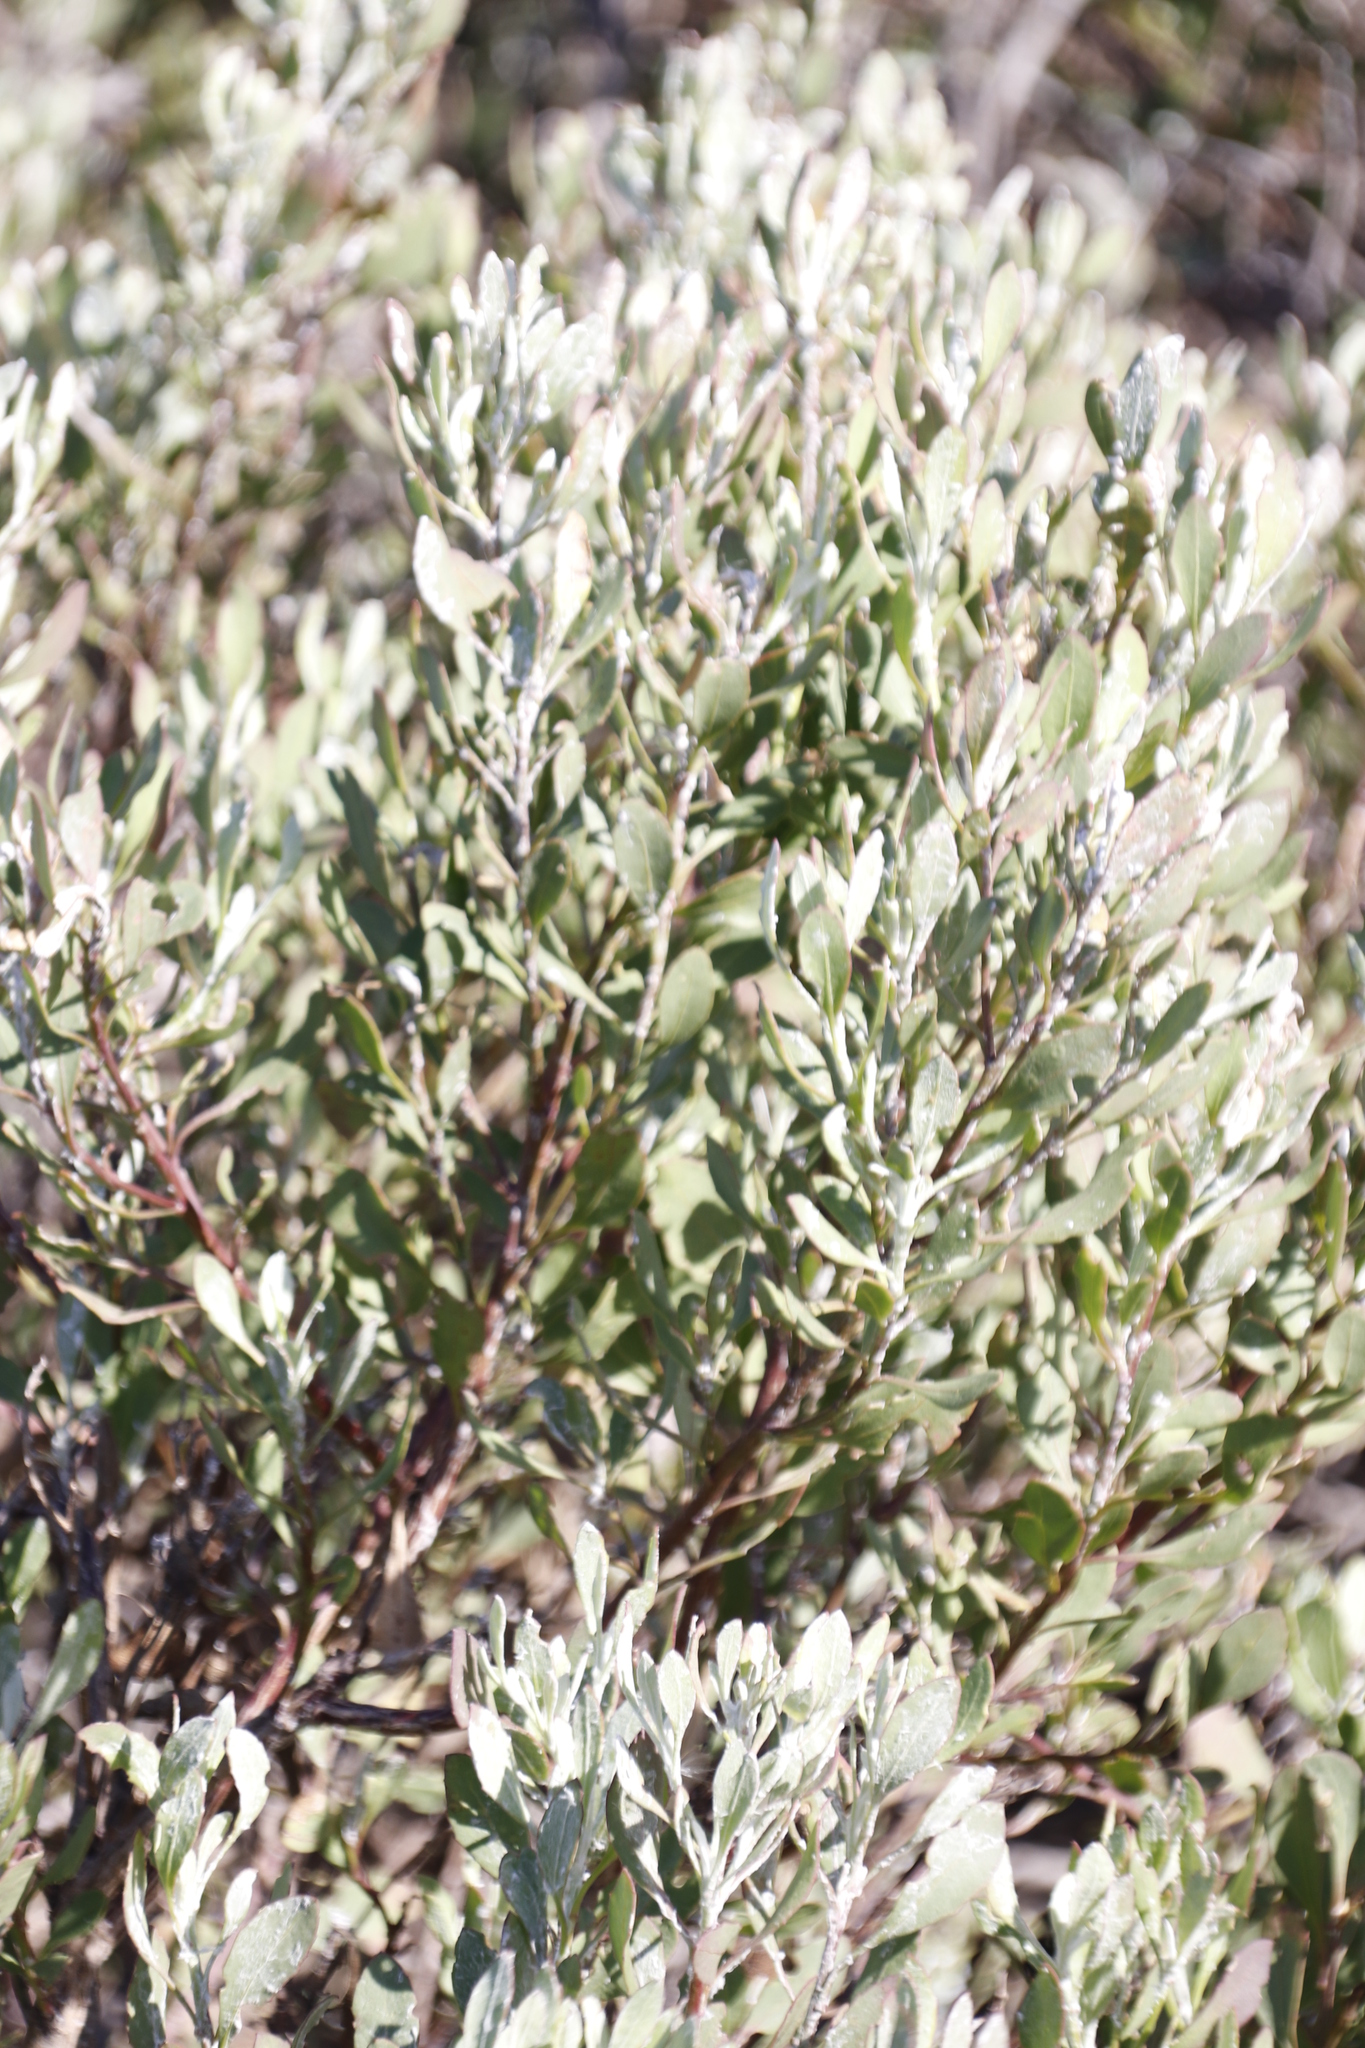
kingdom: Plantae
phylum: Tracheophyta
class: Magnoliopsida
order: Asterales
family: Asteraceae
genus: Osteospermum
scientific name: Osteospermum moniliferum
